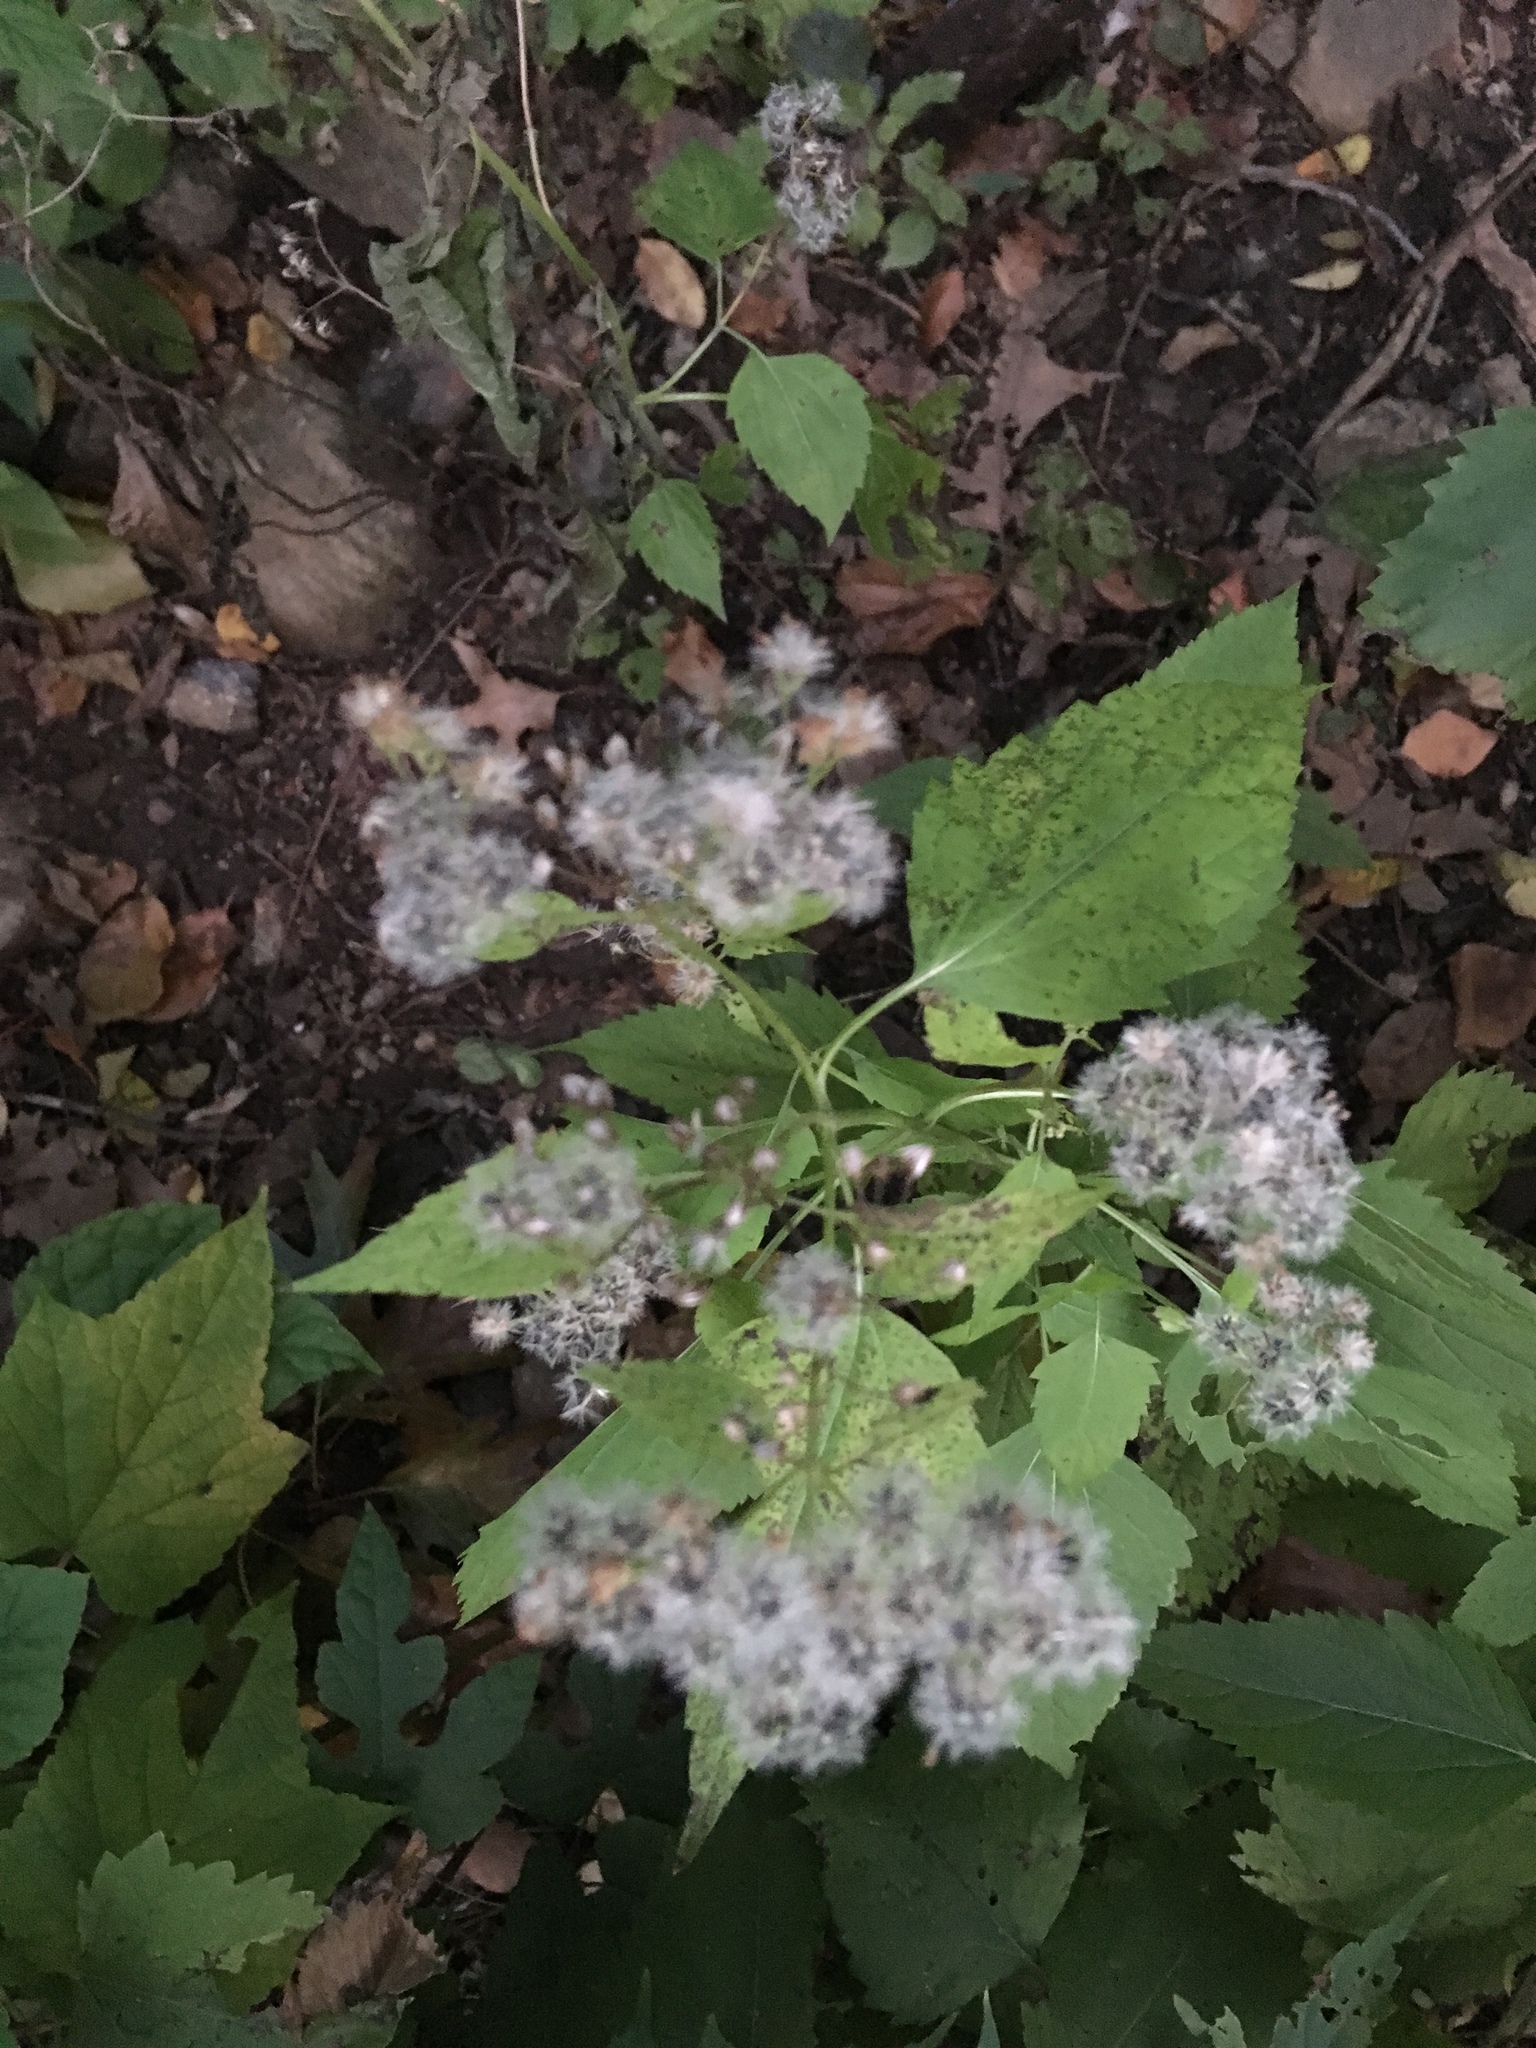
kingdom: Plantae
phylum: Tracheophyta
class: Magnoliopsida
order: Asterales
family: Asteraceae
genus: Ageratina
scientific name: Ageratina altissima
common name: White snakeroot
